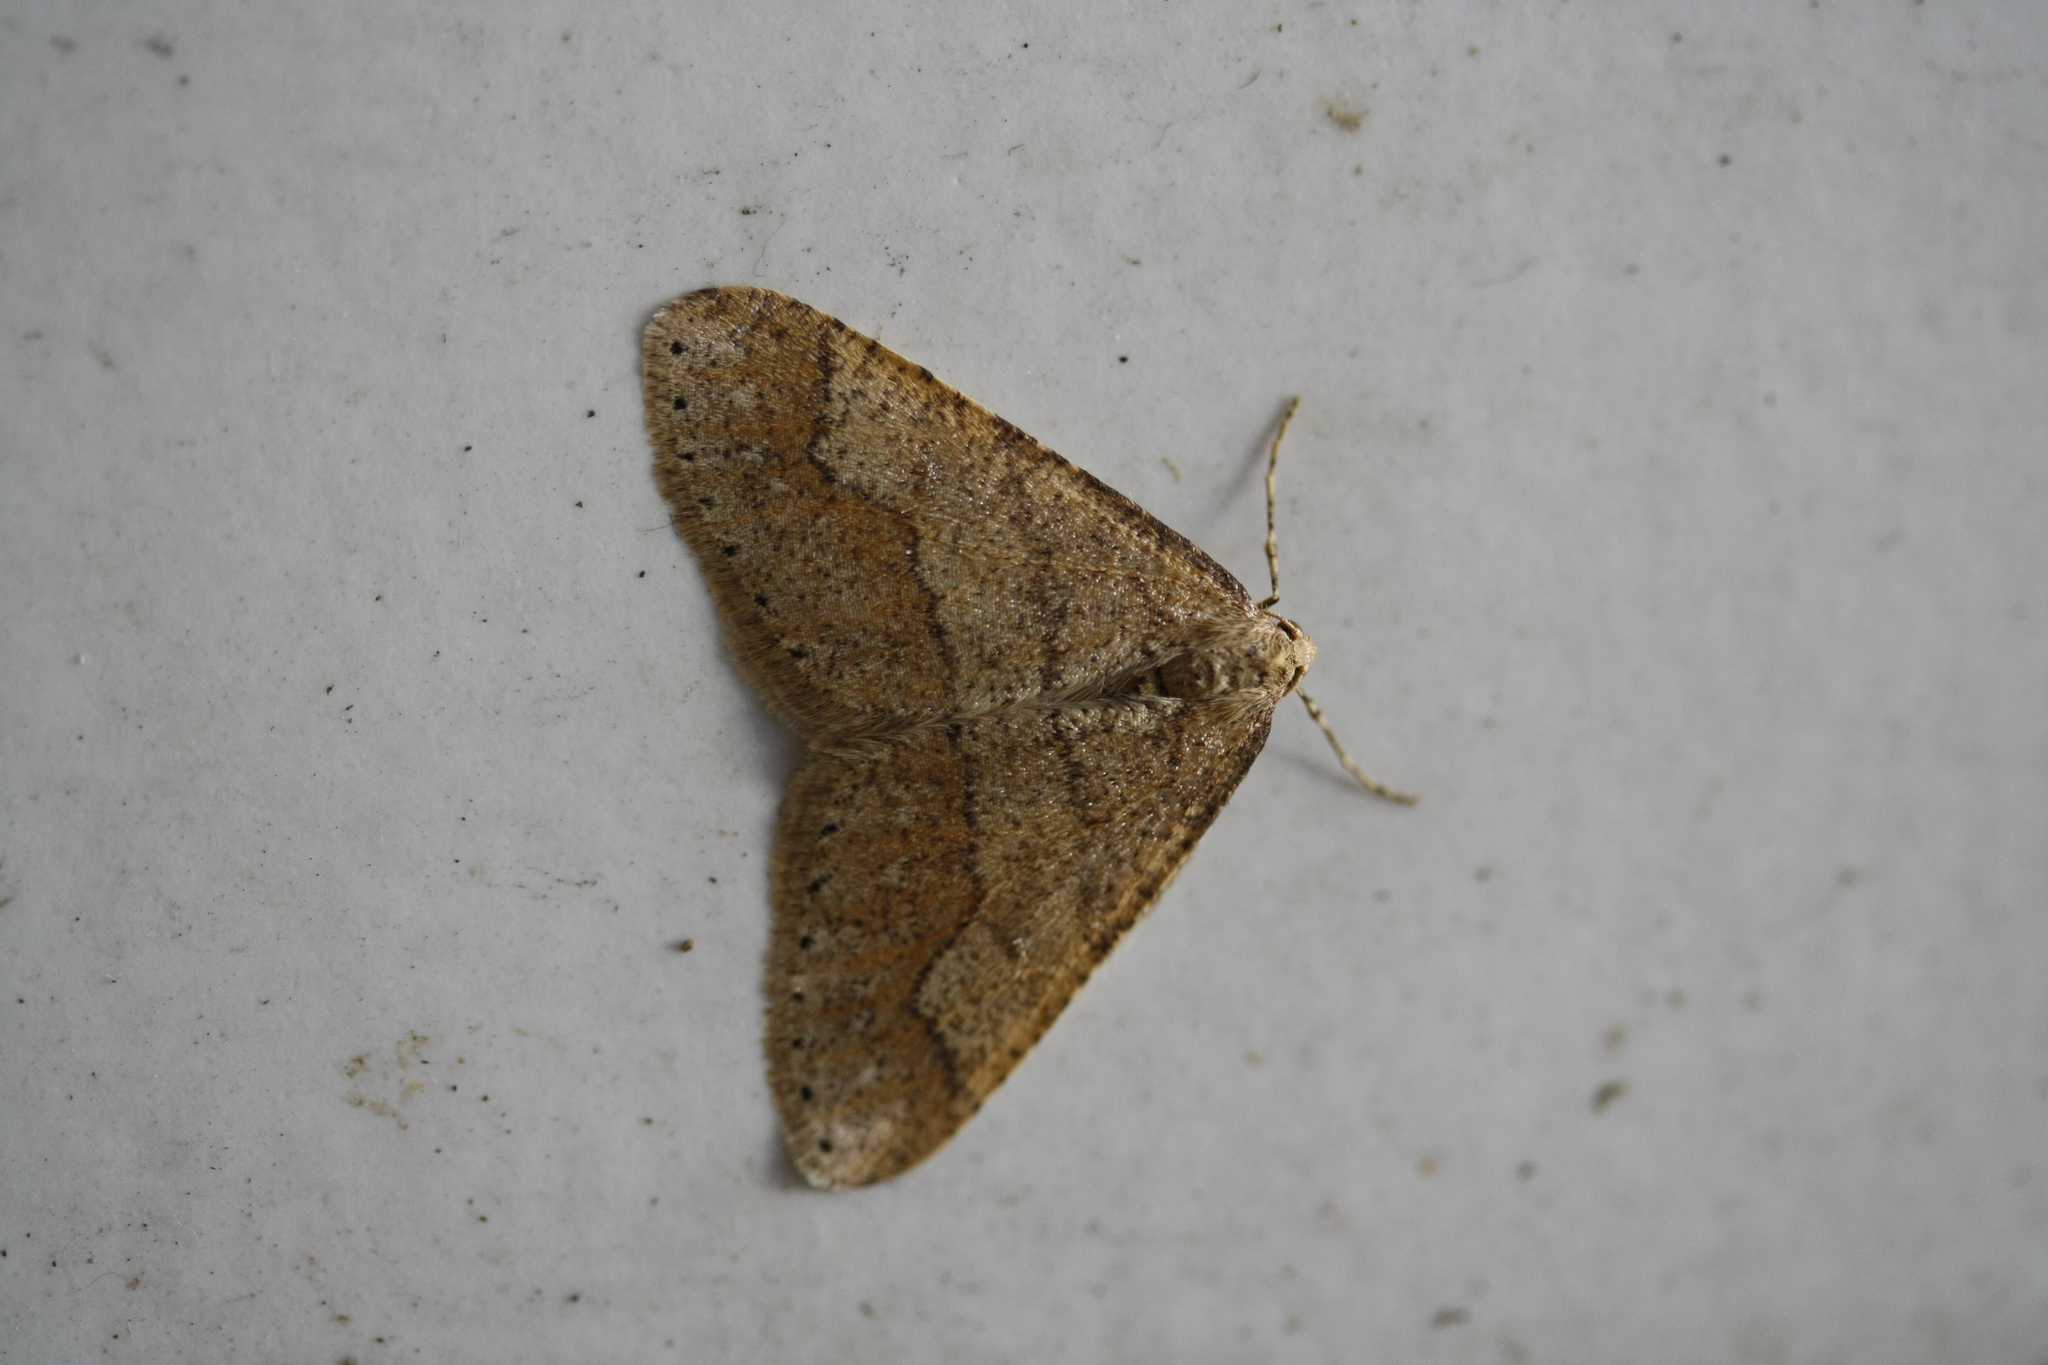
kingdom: Animalia
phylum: Arthropoda
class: Insecta
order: Lepidoptera
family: Geometridae
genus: Agriopis
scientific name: Agriopis marginaria
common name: Dotted border
